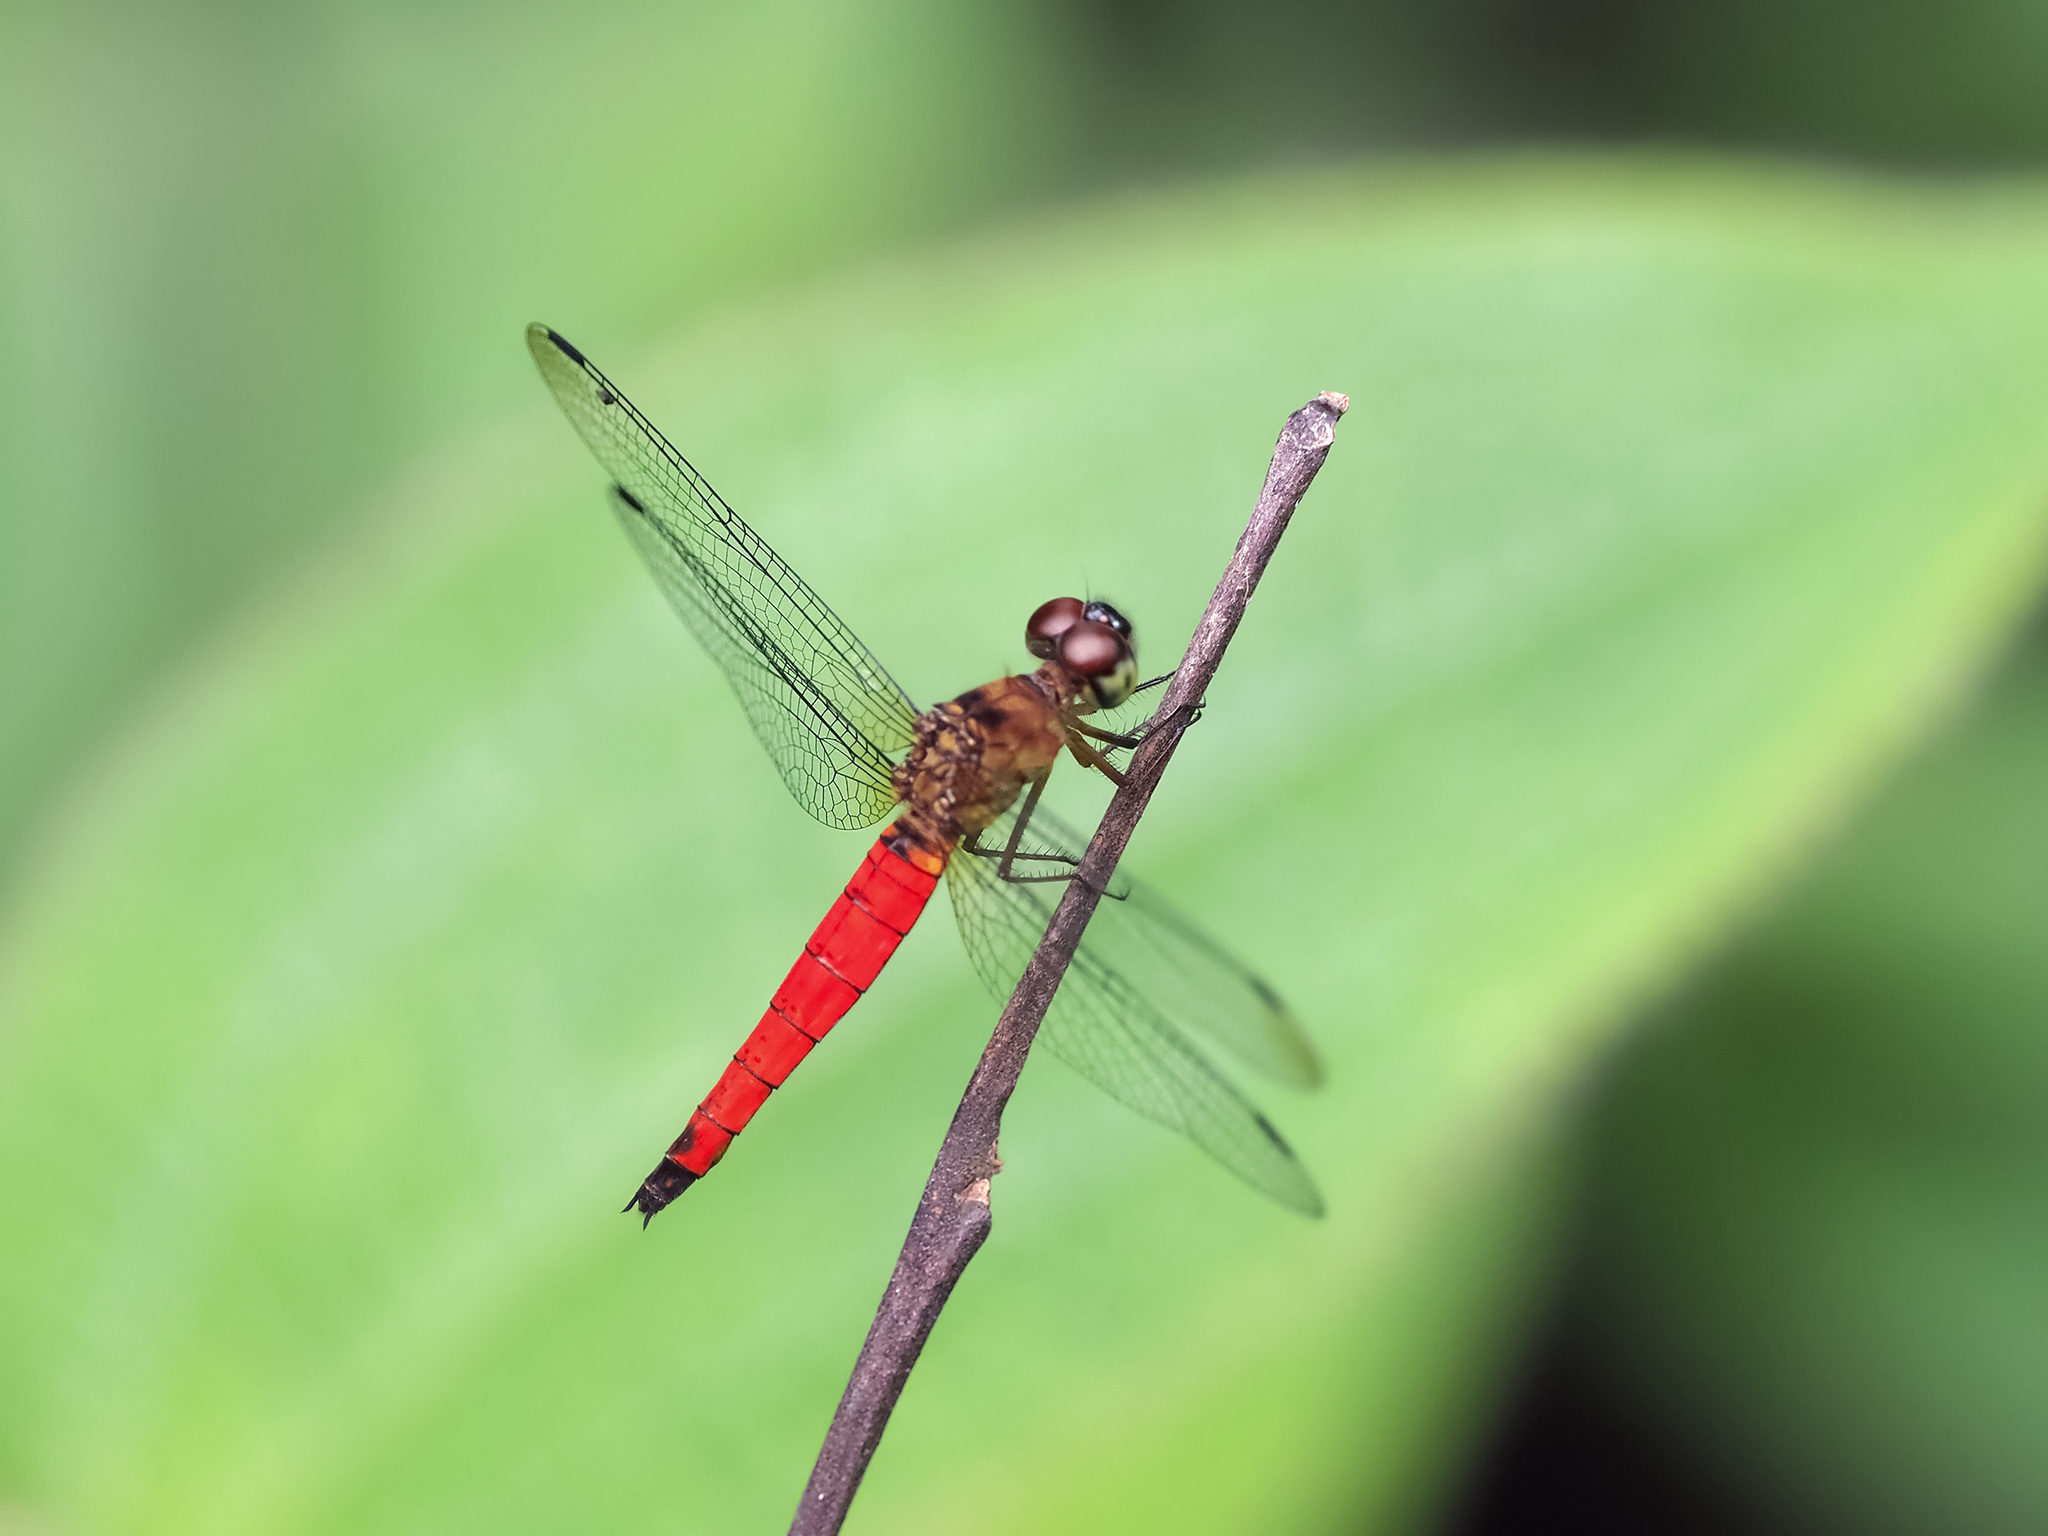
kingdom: Animalia
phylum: Arthropoda
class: Insecta
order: Odonata
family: Libellulidae
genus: Orchithemis
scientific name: Orchithemis pulcherrima
